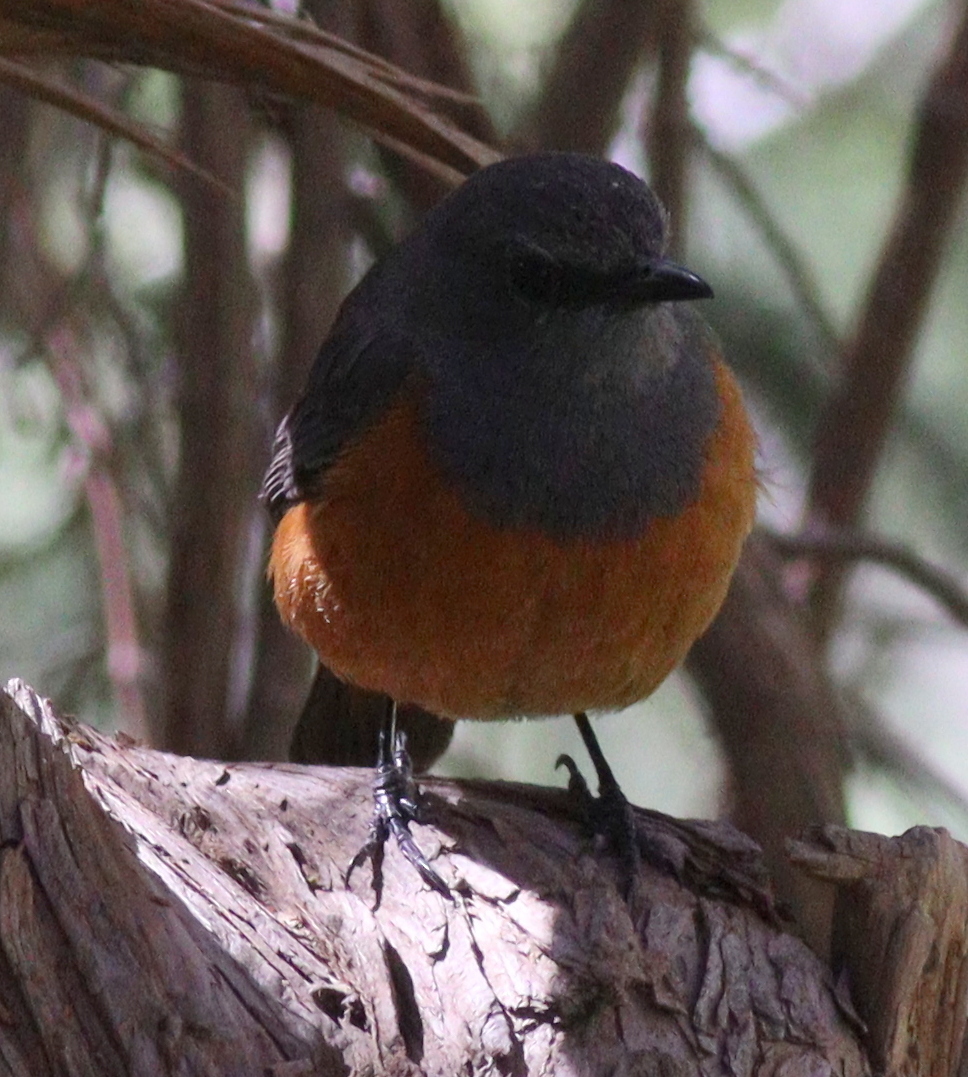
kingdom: Animalia
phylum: Chordata
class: Aves
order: Passeriformes
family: Muscicapidae
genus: Monticola
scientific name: Monticola rufocinereus
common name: Little rock thrush
